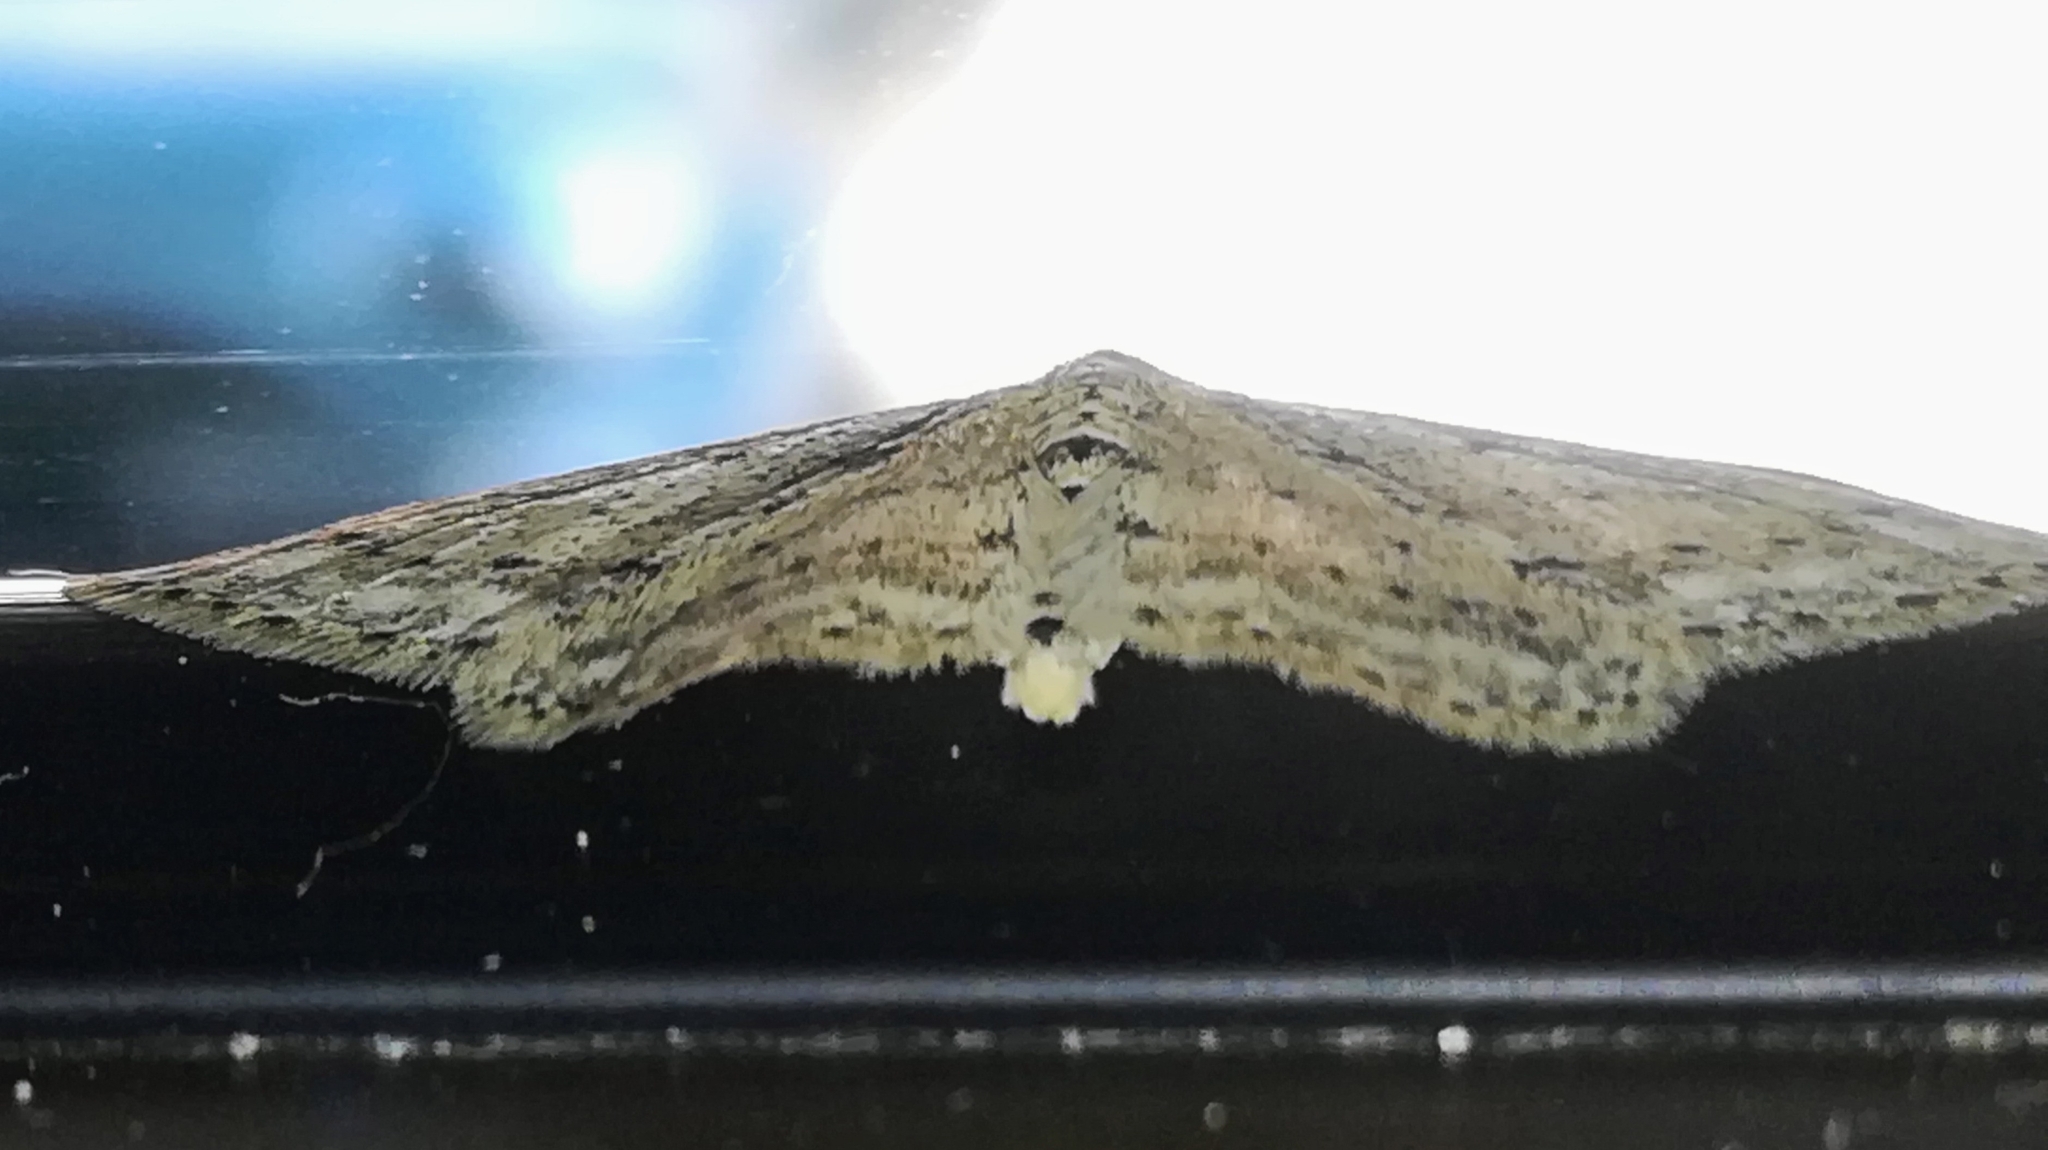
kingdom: Animalia
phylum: Arthropoda
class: Insecta
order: Lepidoptera
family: Geometridae
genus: Idaea
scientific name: Idaea seriata
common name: Small dusty wave
